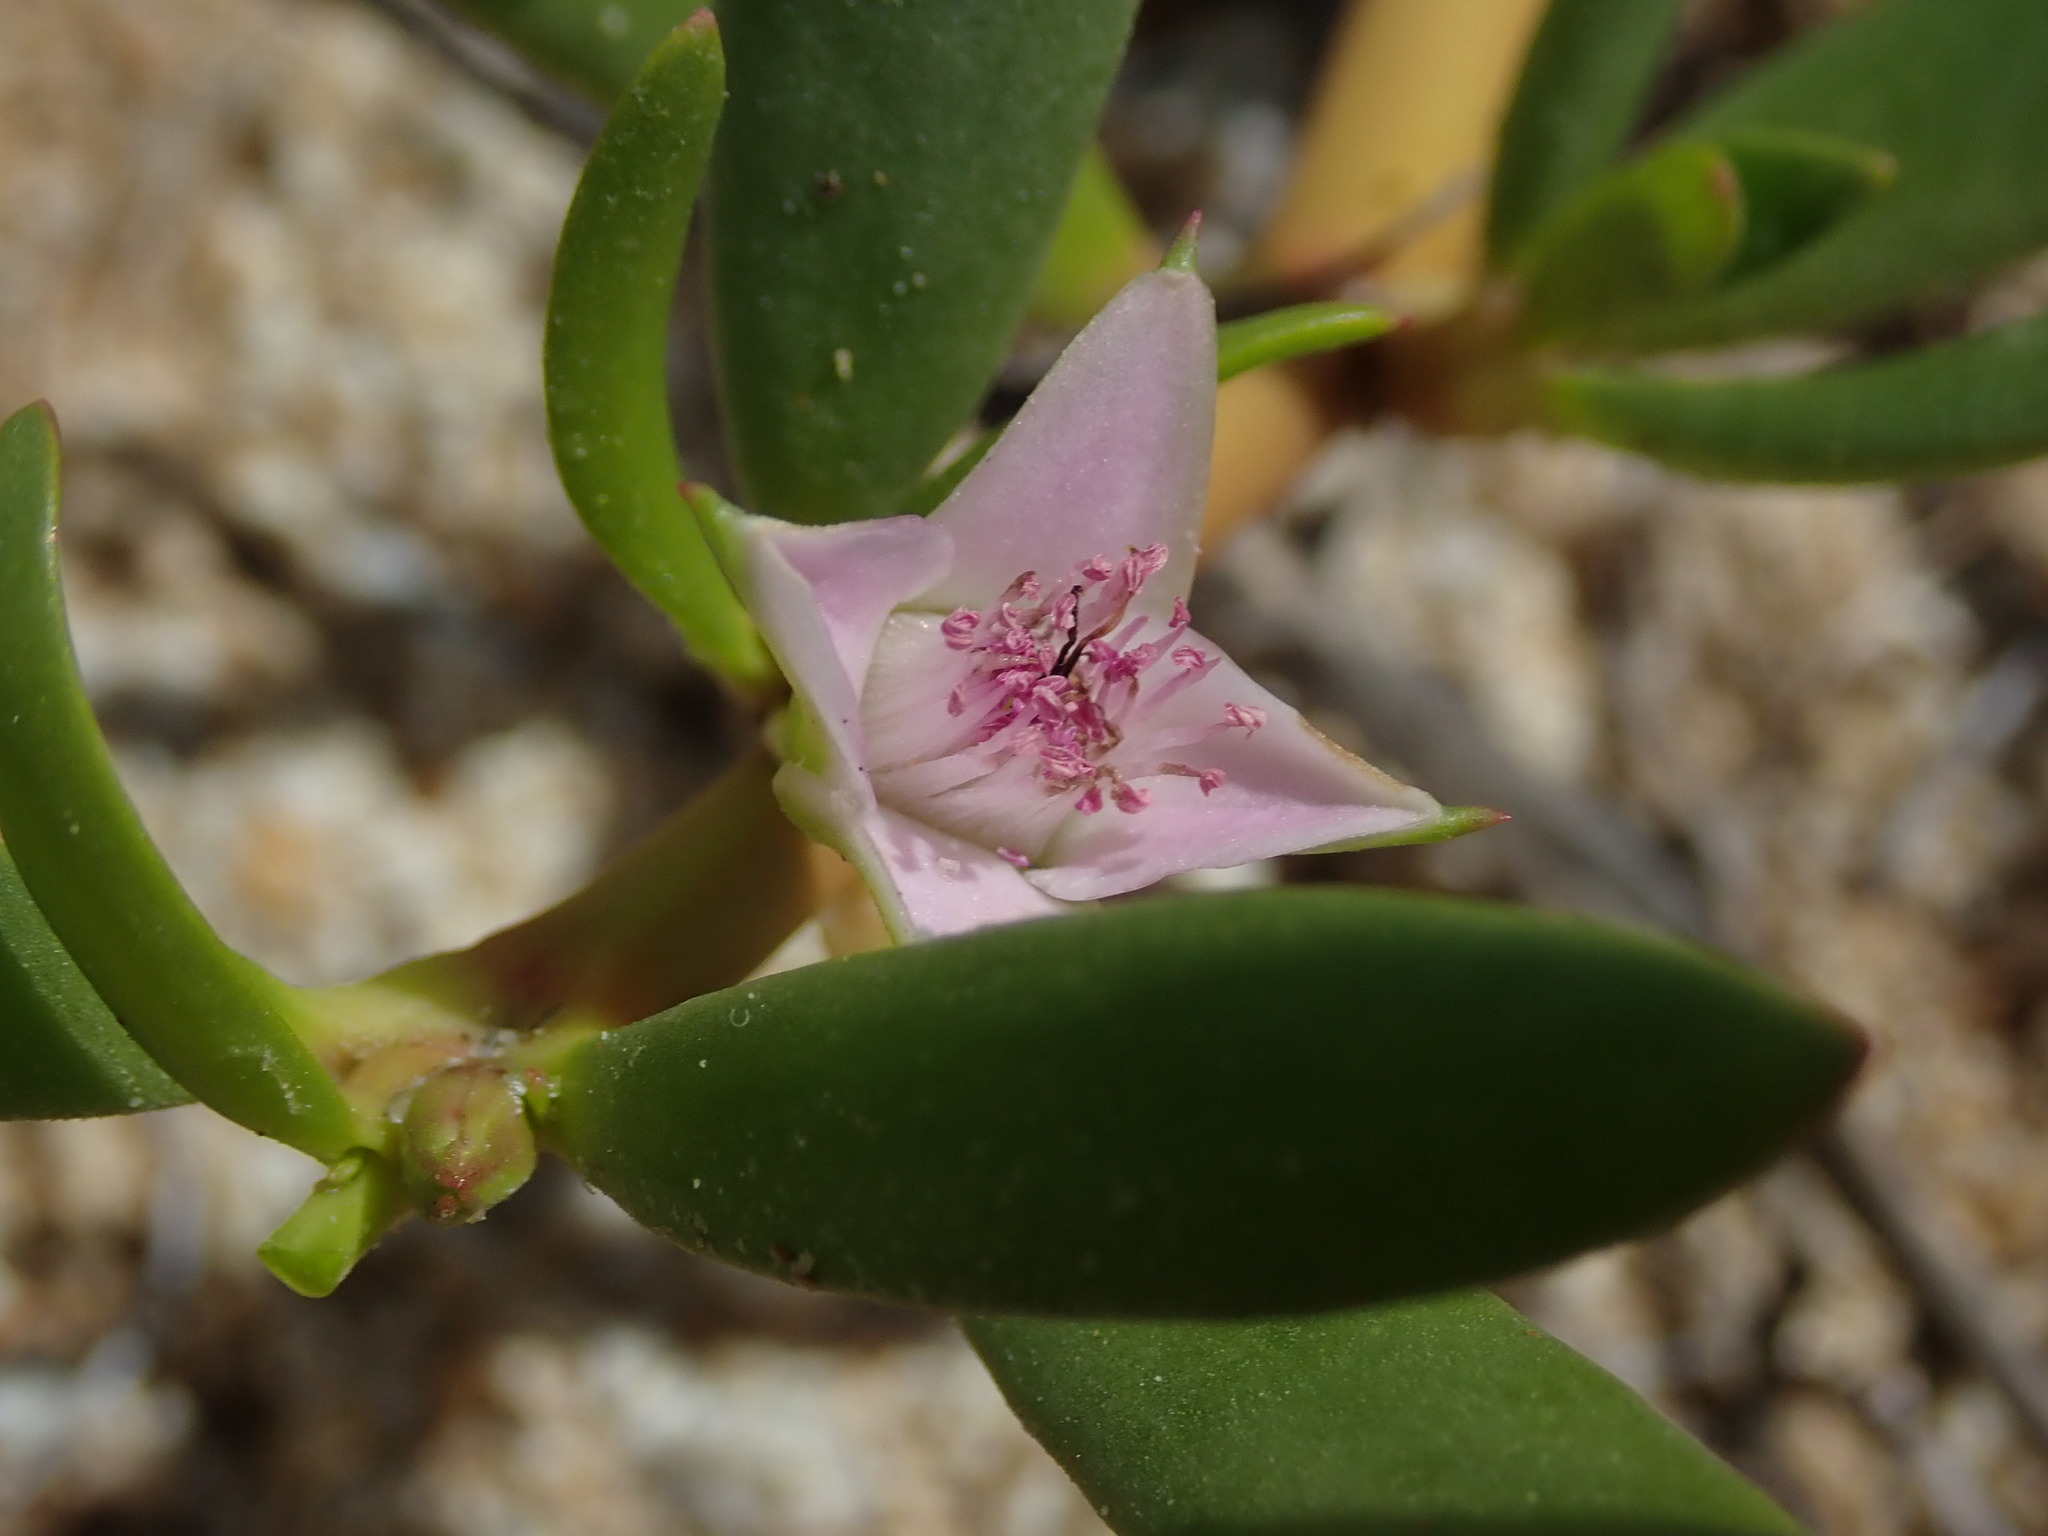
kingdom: Plantae
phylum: Tracheophyta
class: Magnoliopsida
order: Caryophyllales
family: Aizoaceae
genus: Sesuvium
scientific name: Sesuvium portulacastrum
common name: Sea-purslane
